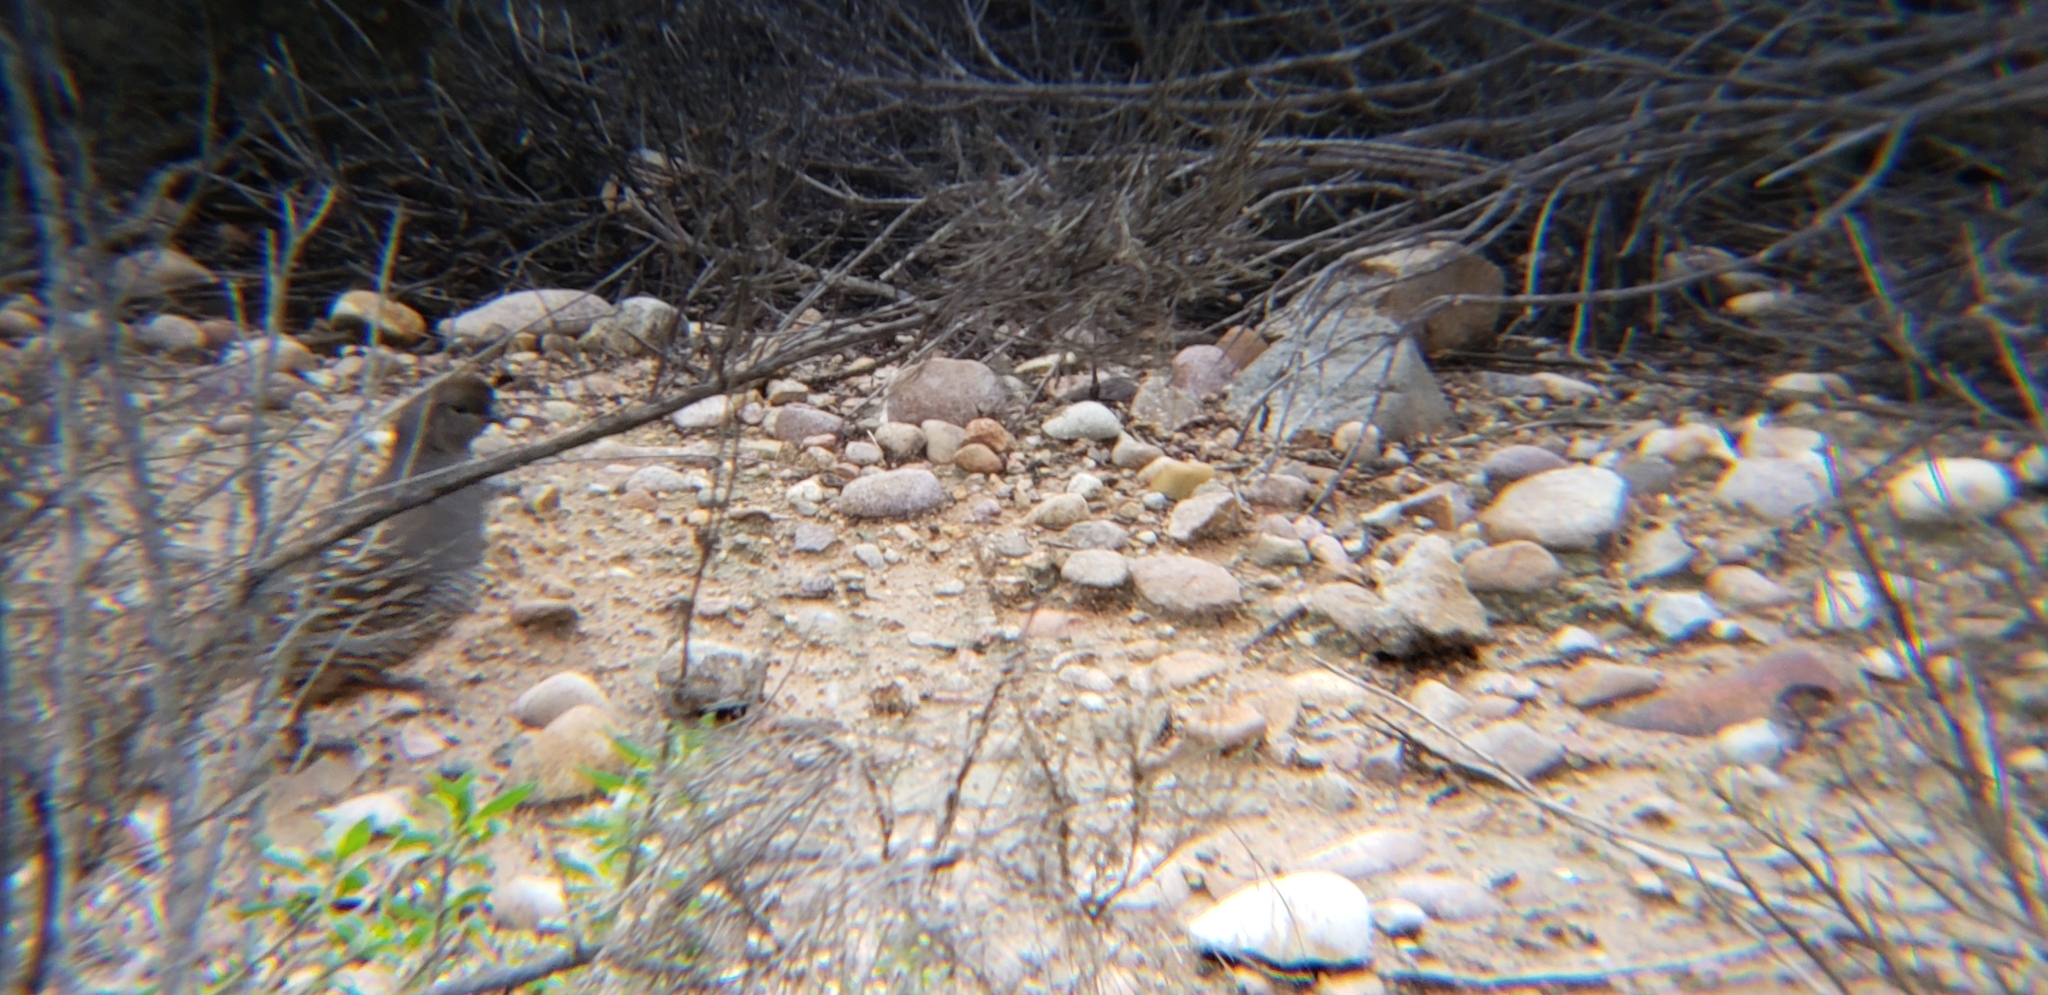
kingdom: Animalia
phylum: Chordata
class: Aves
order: Galliformes
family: Odontophoridae
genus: Callipepla
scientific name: Callipepla californica
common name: California quail
